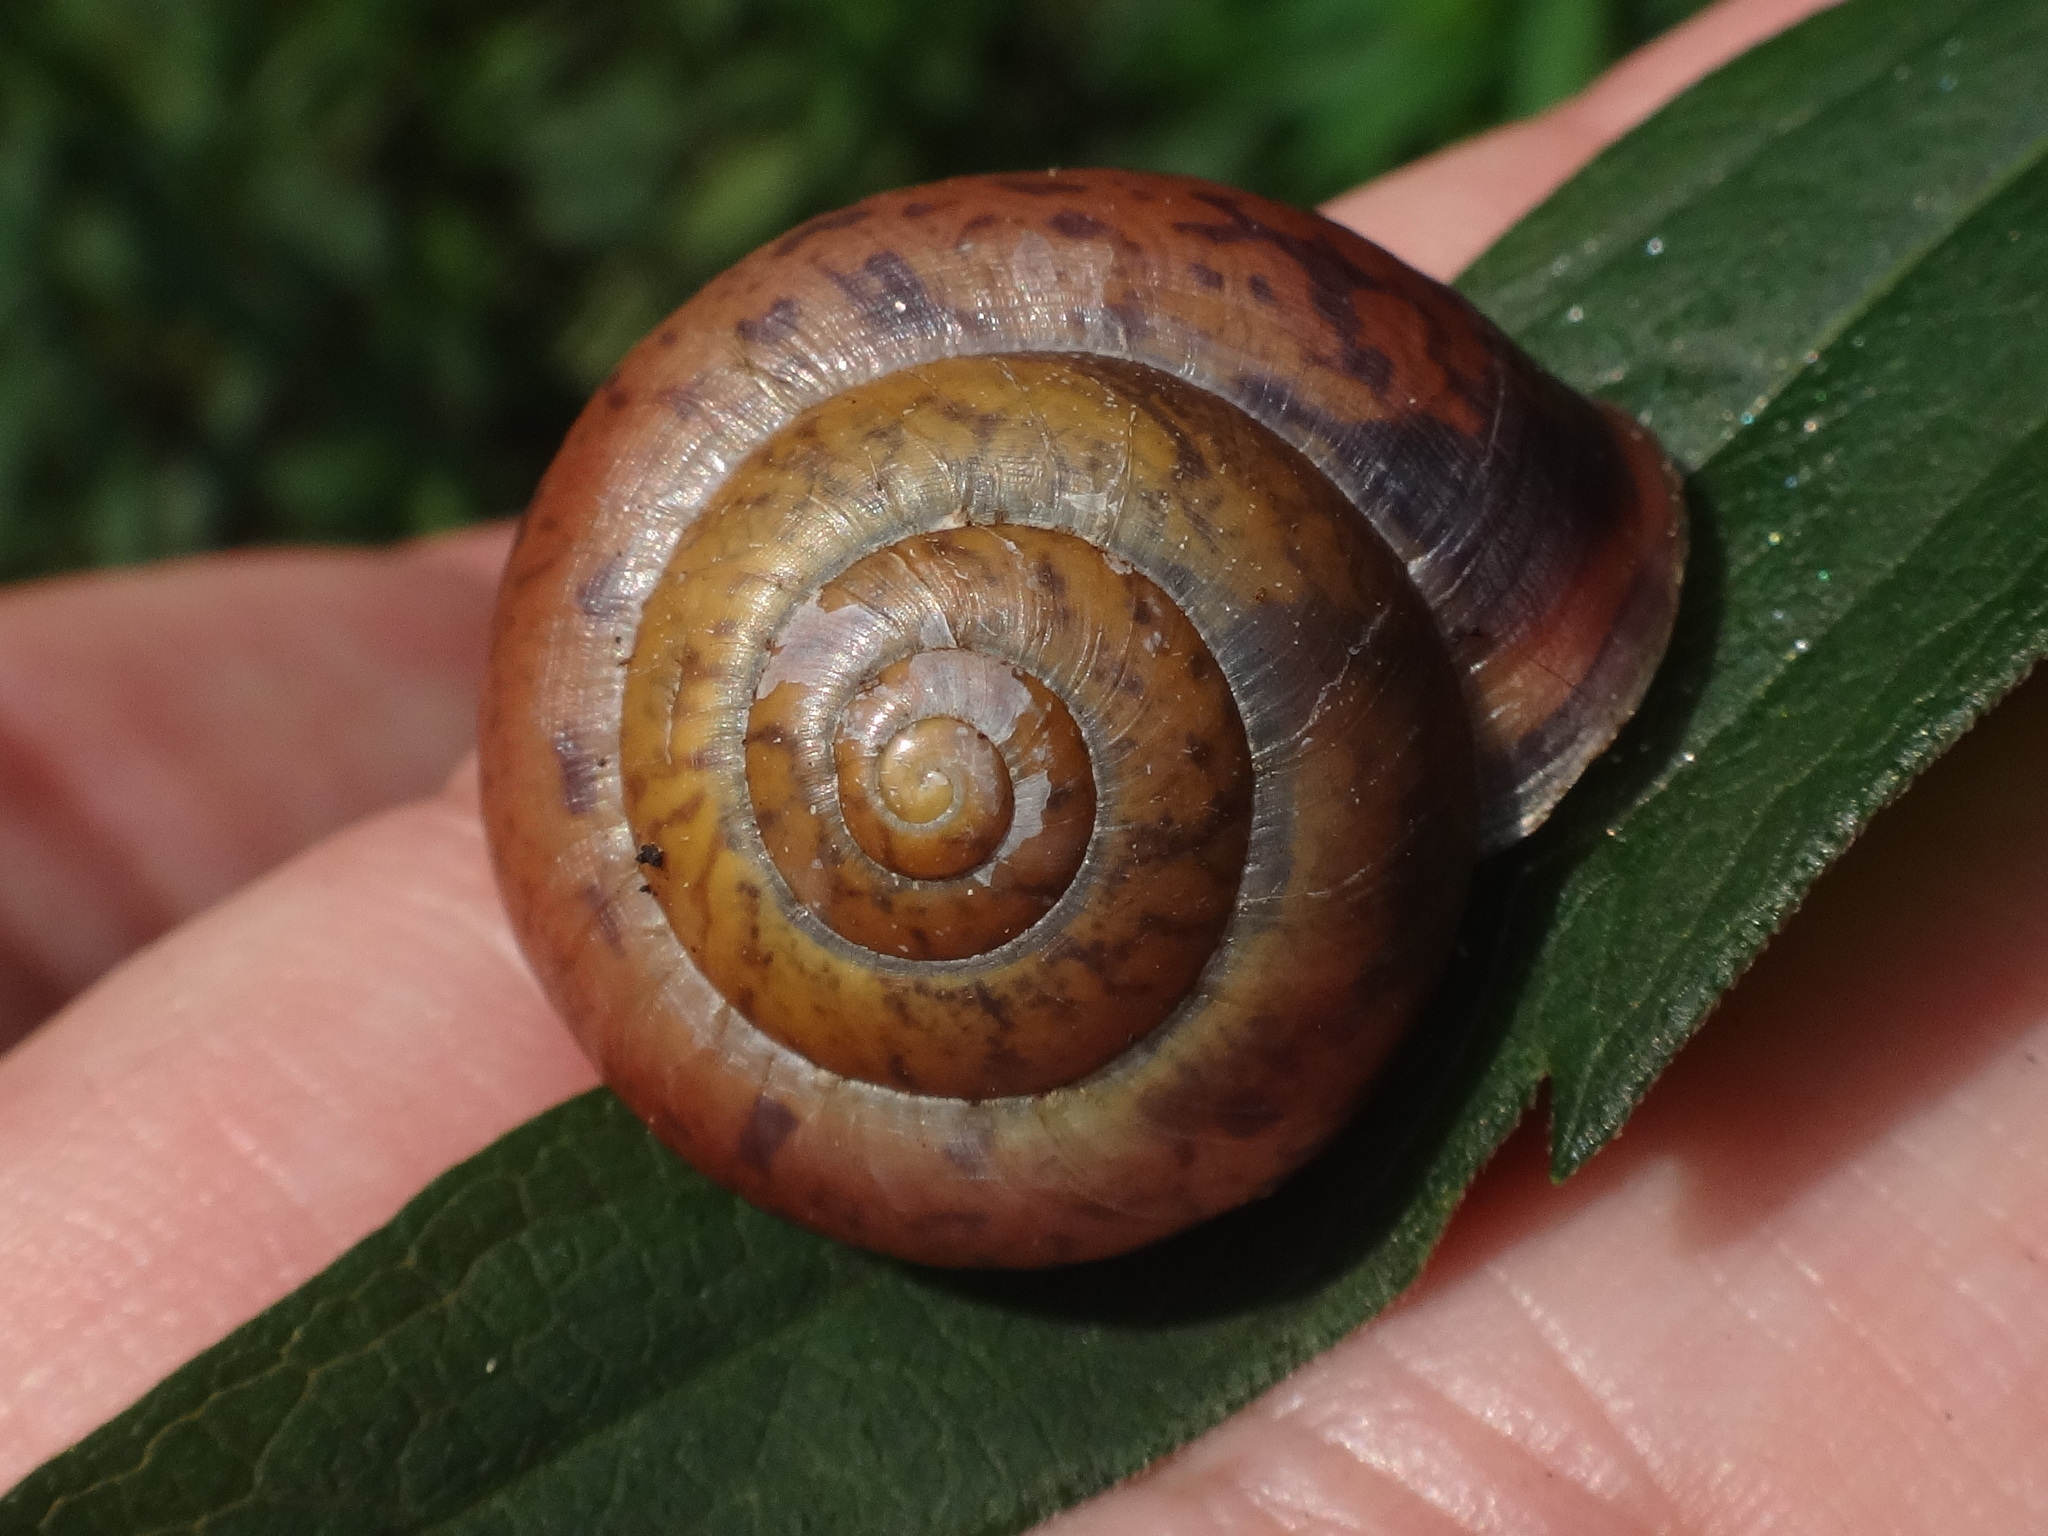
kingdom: Animalia
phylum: Mollusca
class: Gastropoda
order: Stylommatophora
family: Camaenidae
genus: Fruticicola
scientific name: Fruticicola fruticum
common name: Bush snail
